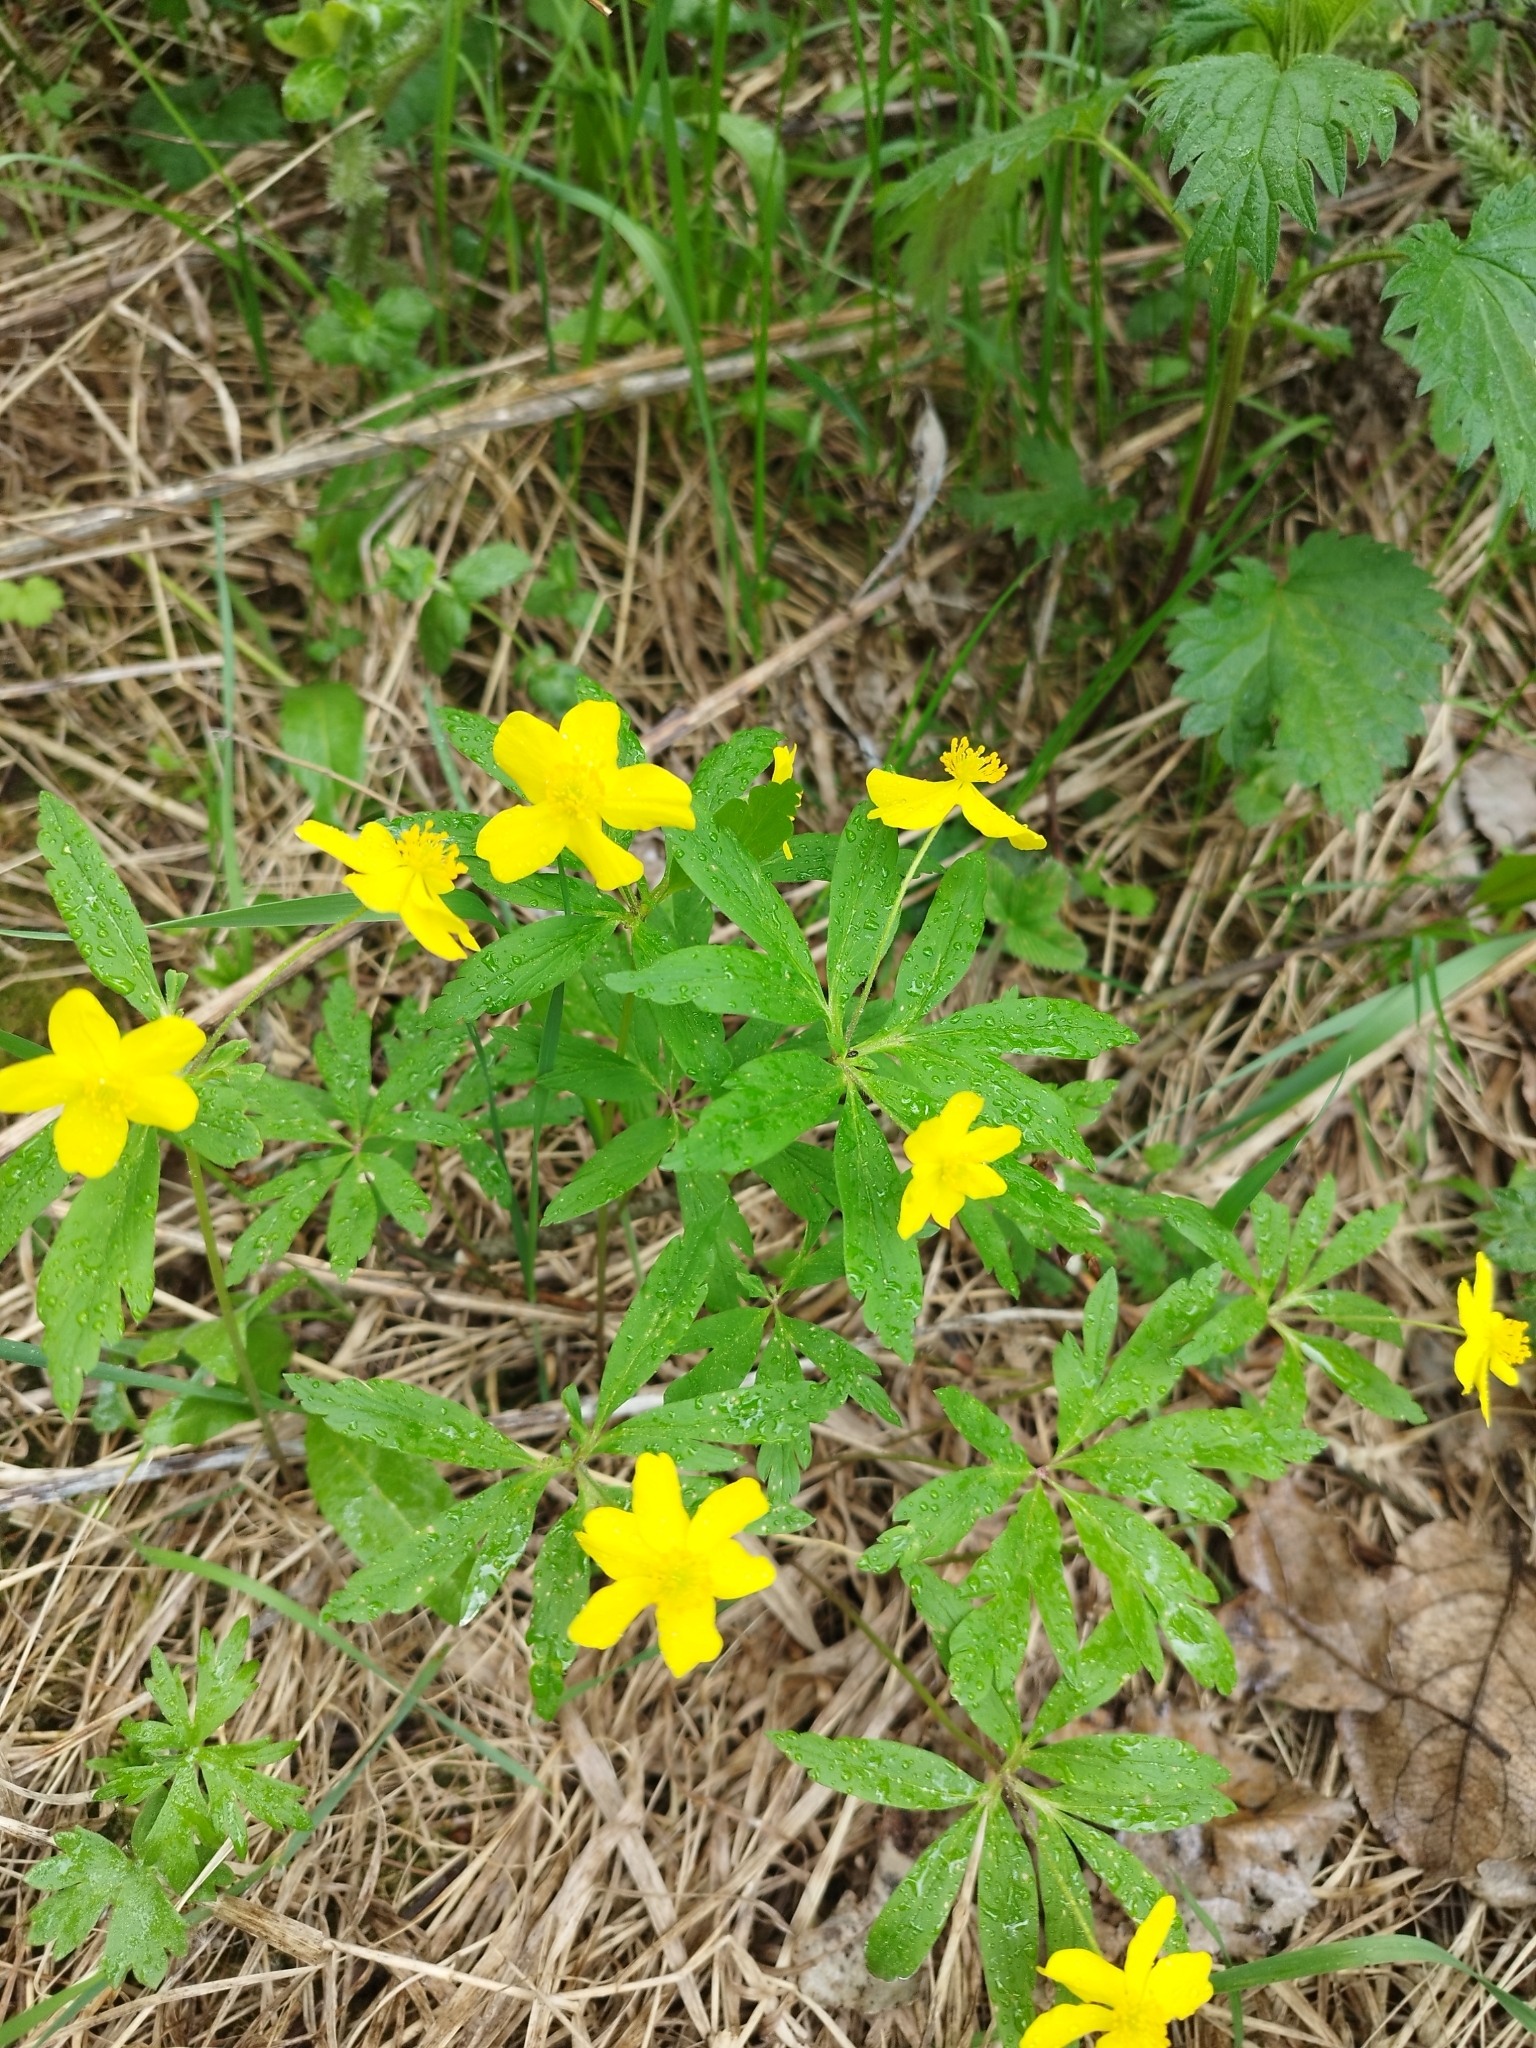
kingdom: Plantae
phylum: Tracheophyta
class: Magnoliopsida
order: Ranunculales
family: Ranunculaceae
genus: Anemone
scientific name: Anemone ranunculoides
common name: Yellow anemone
